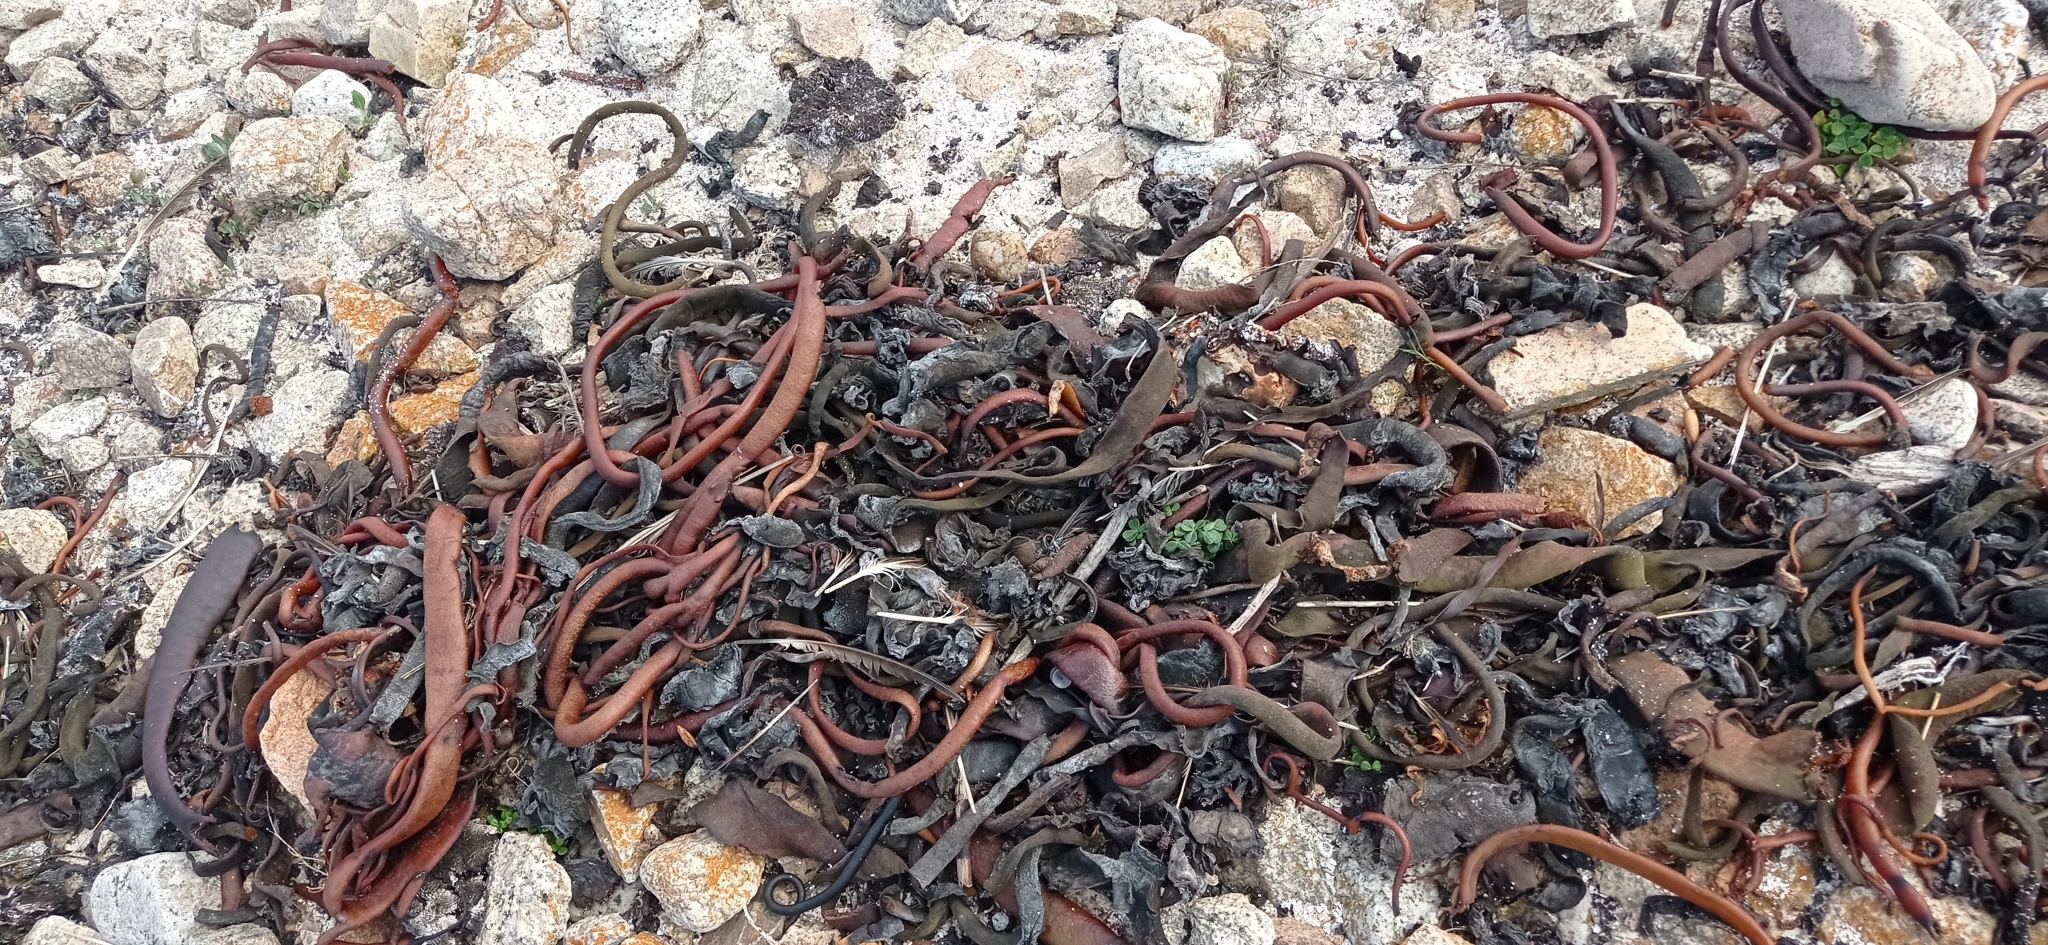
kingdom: Chromista
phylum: Ochrophyta
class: Phaeophyceae
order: Fucales
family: Durvillaeaceae
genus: Durvillaea
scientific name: Durvillaea
